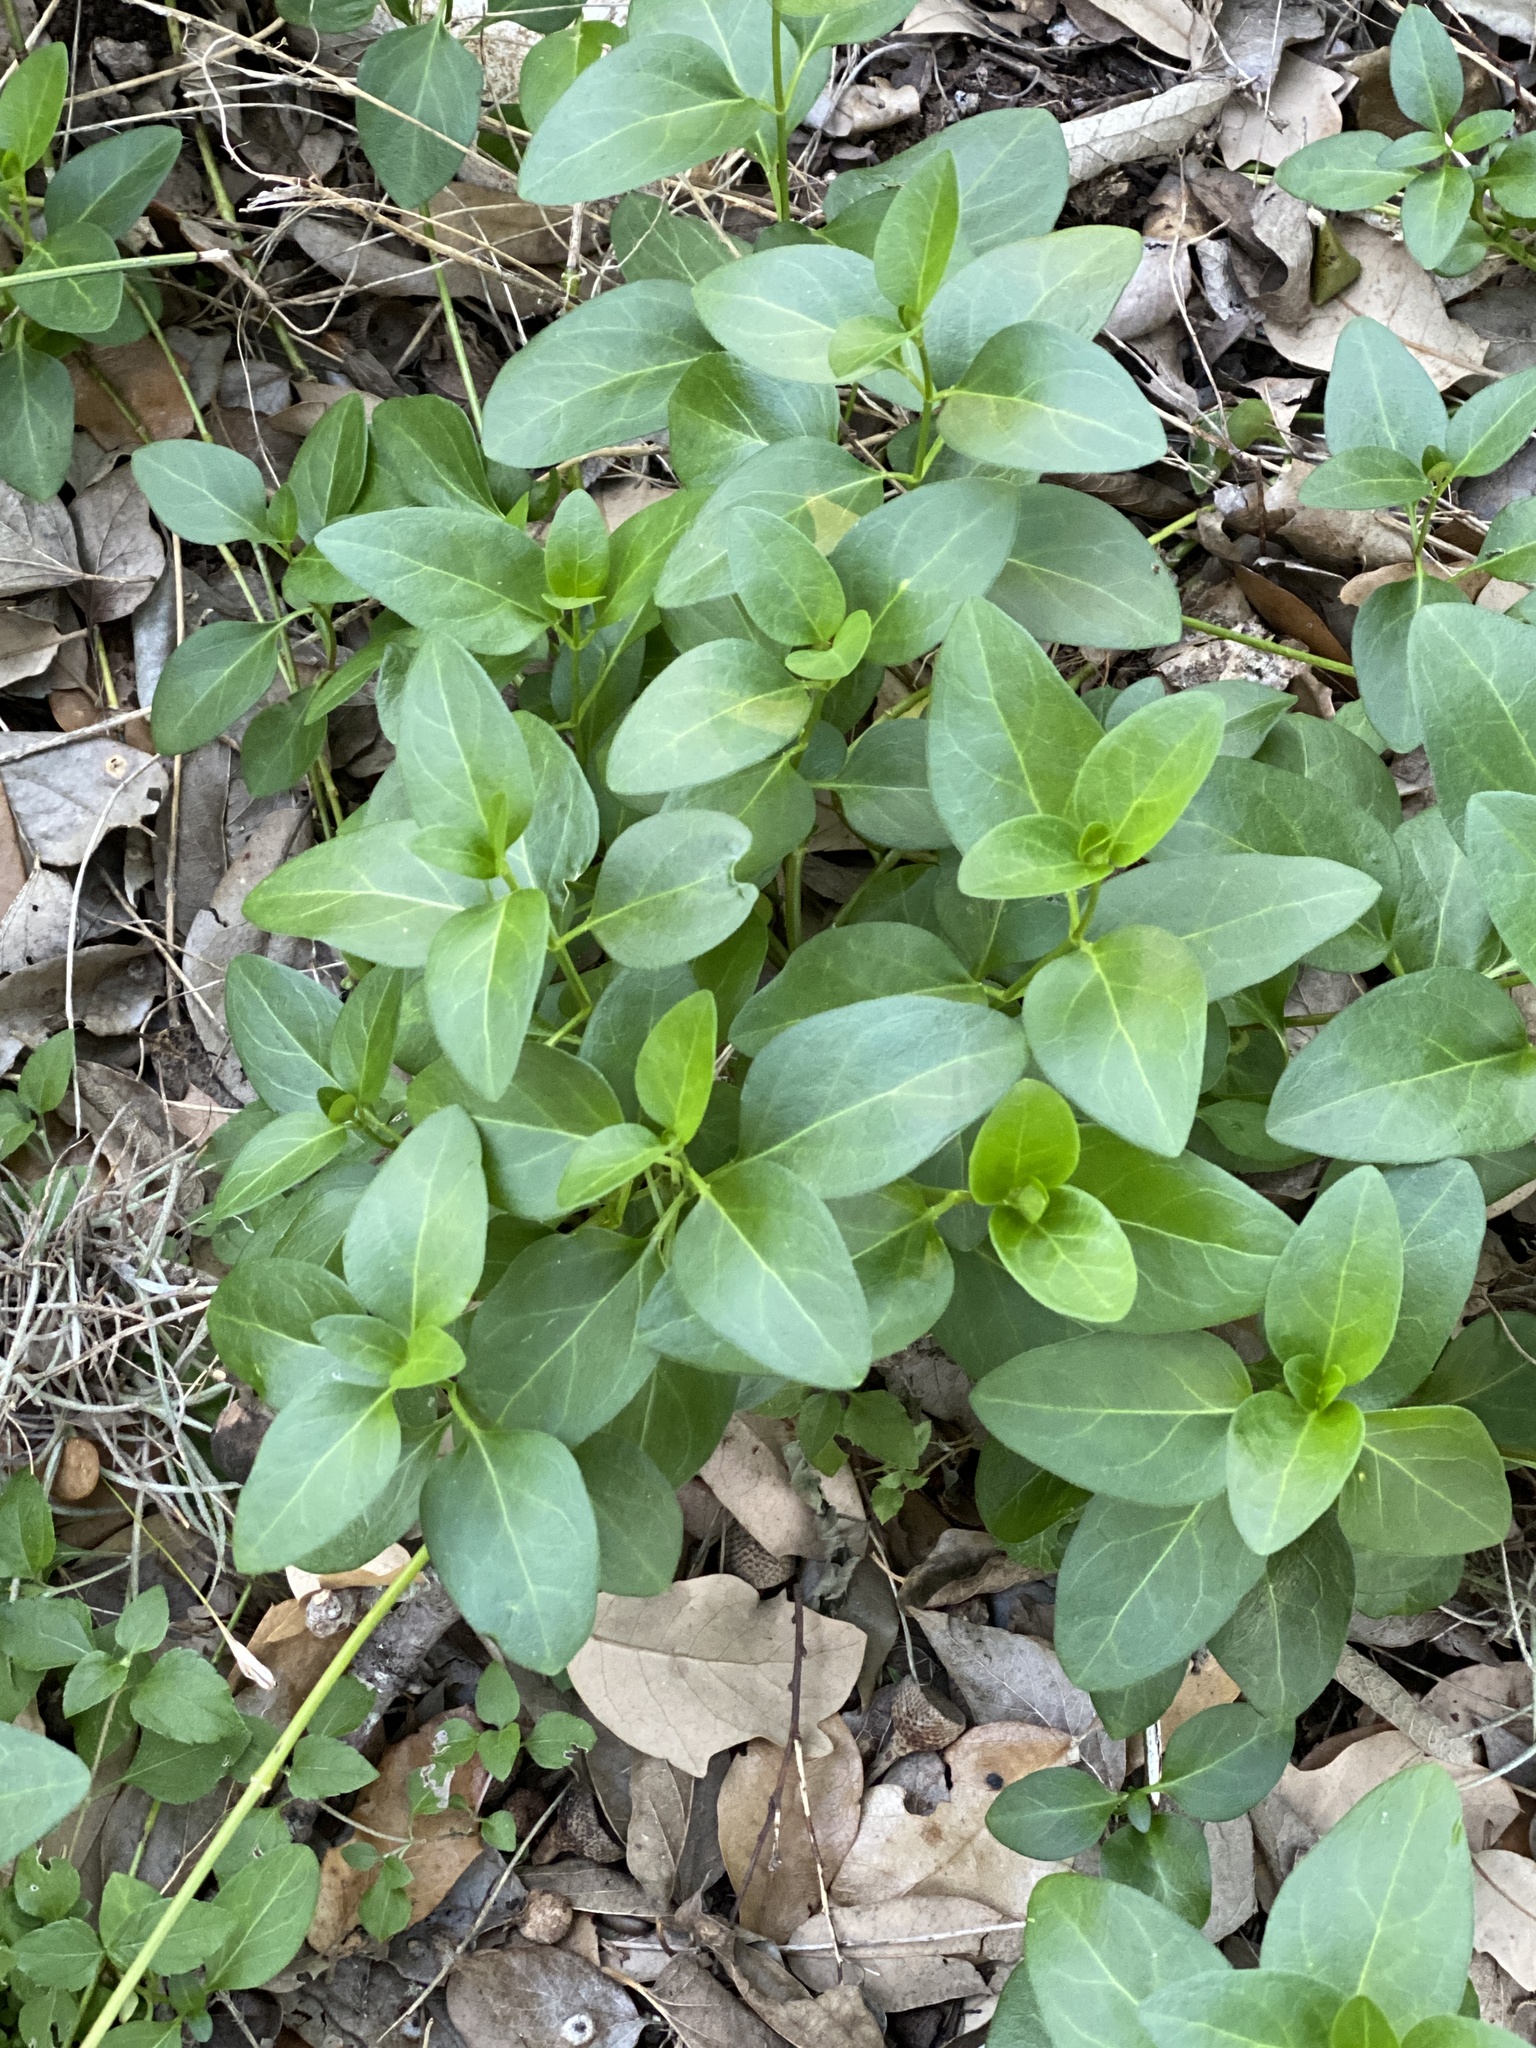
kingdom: Plantae
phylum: Tracheophyta
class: Magnoliopsida
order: Gentianales
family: Apocynaceae
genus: Vinca
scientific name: Vinca major
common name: Greater periwinkle
